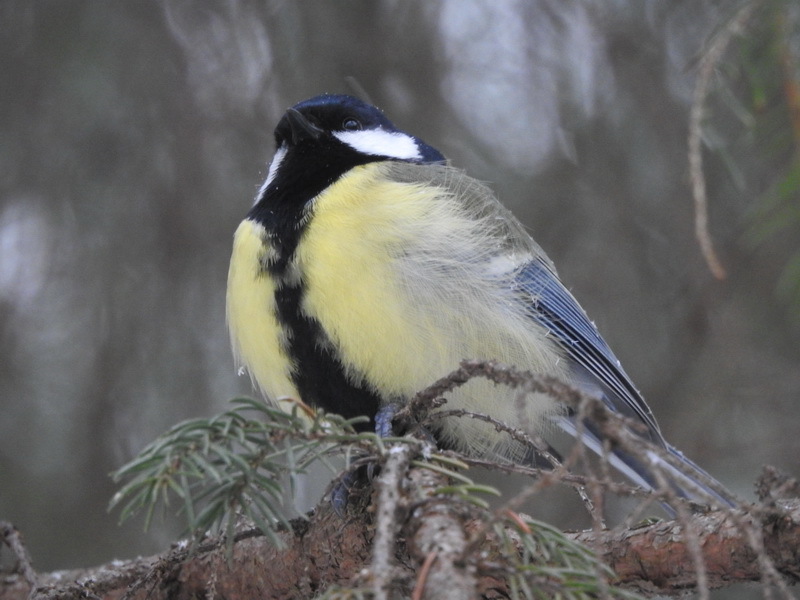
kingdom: Animalia
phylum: Chordata
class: Aves
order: Passeriformes
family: Paridae
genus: Parus
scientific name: Parus major
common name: Great tit
